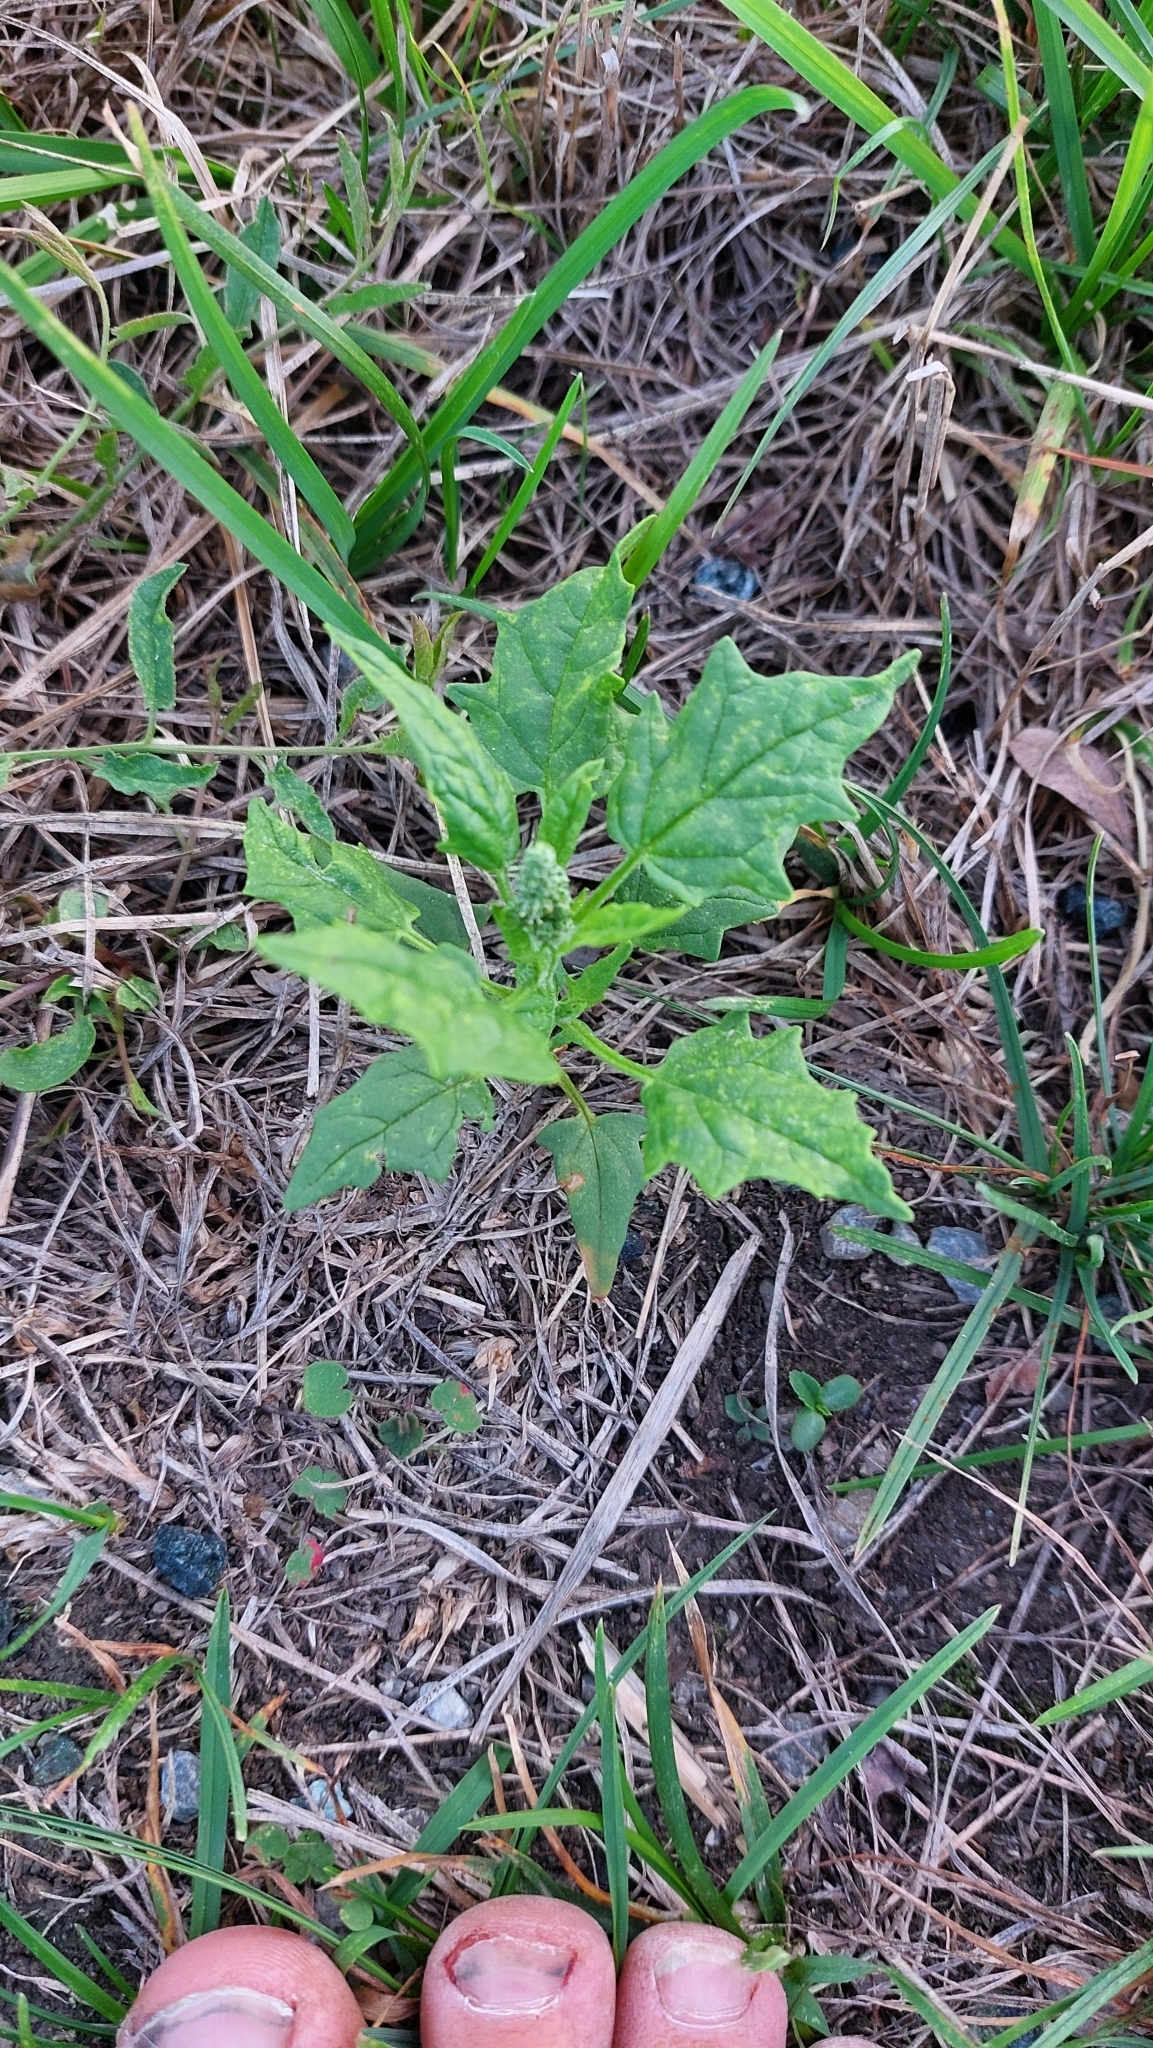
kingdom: Plantae
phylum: Tracheophyta
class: Magnoliopsida
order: Caryophyllales
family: Amaranthaceae
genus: Chenopodiastrum
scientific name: Chenopodiastrum hybridum
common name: Mapleleaf goosefoot
